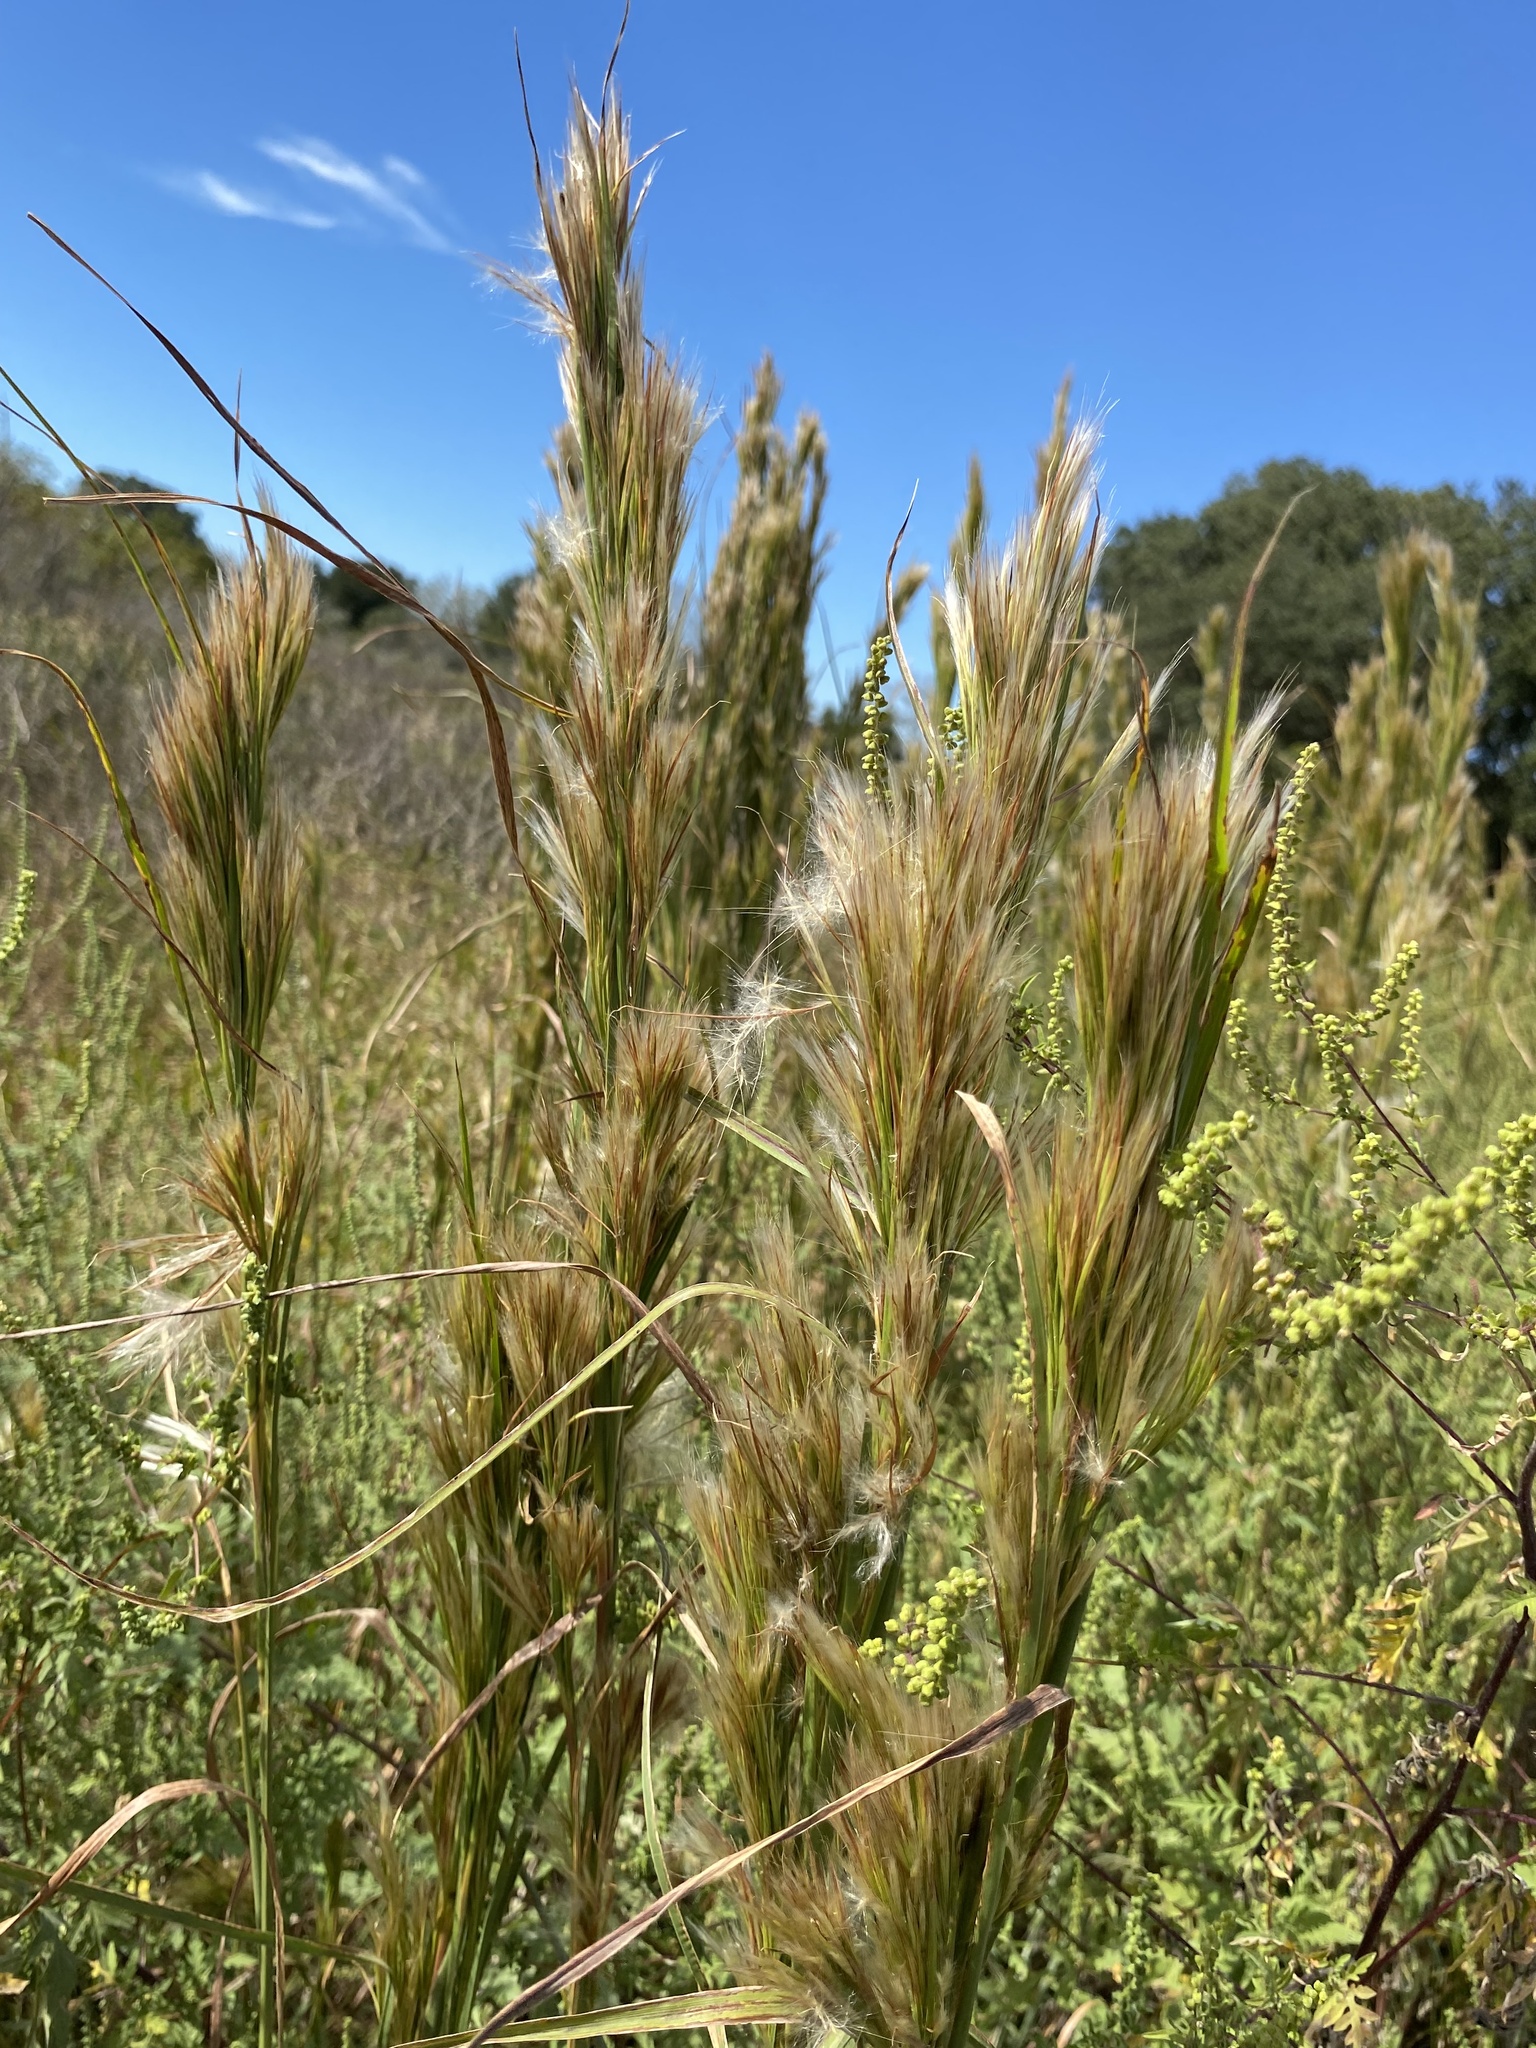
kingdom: Plantae
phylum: Tracheophyta
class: Liliopsida
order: Poales
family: Poaceae
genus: Andropogon
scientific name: Andropogon tenuispatheus
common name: Bushy bluestem
